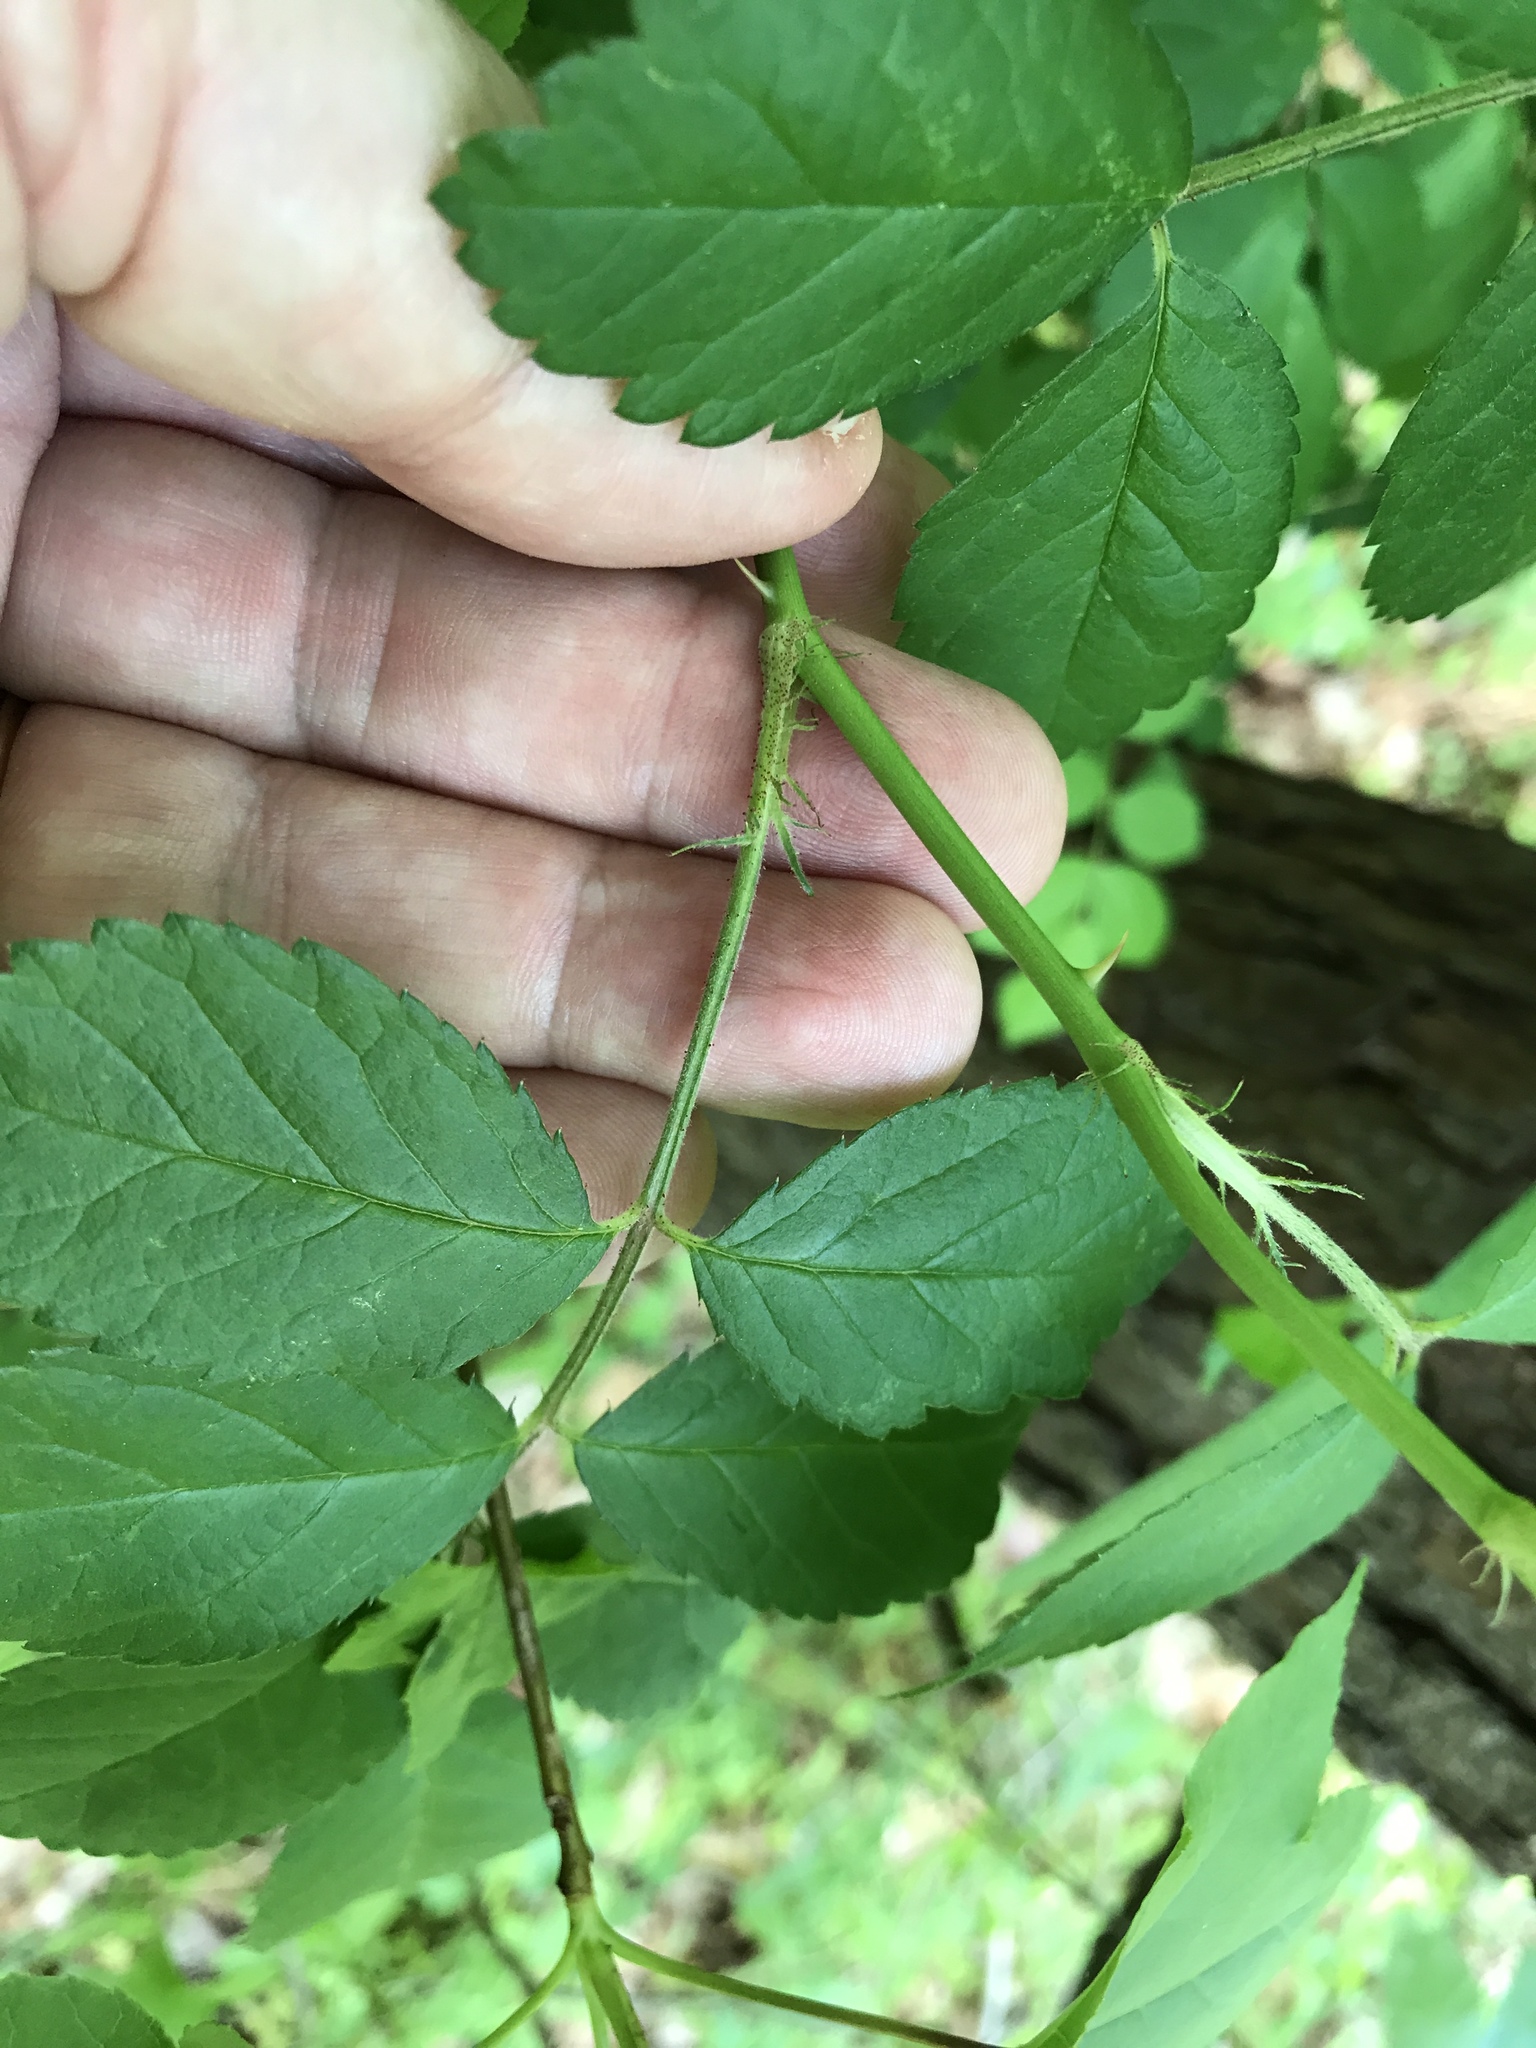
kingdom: Plantae
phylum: Tracheophyta
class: Magnoliopsida
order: Rosales
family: Rosaceae
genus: Rosa
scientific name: Rosa multiflora
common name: Multiflora rose
